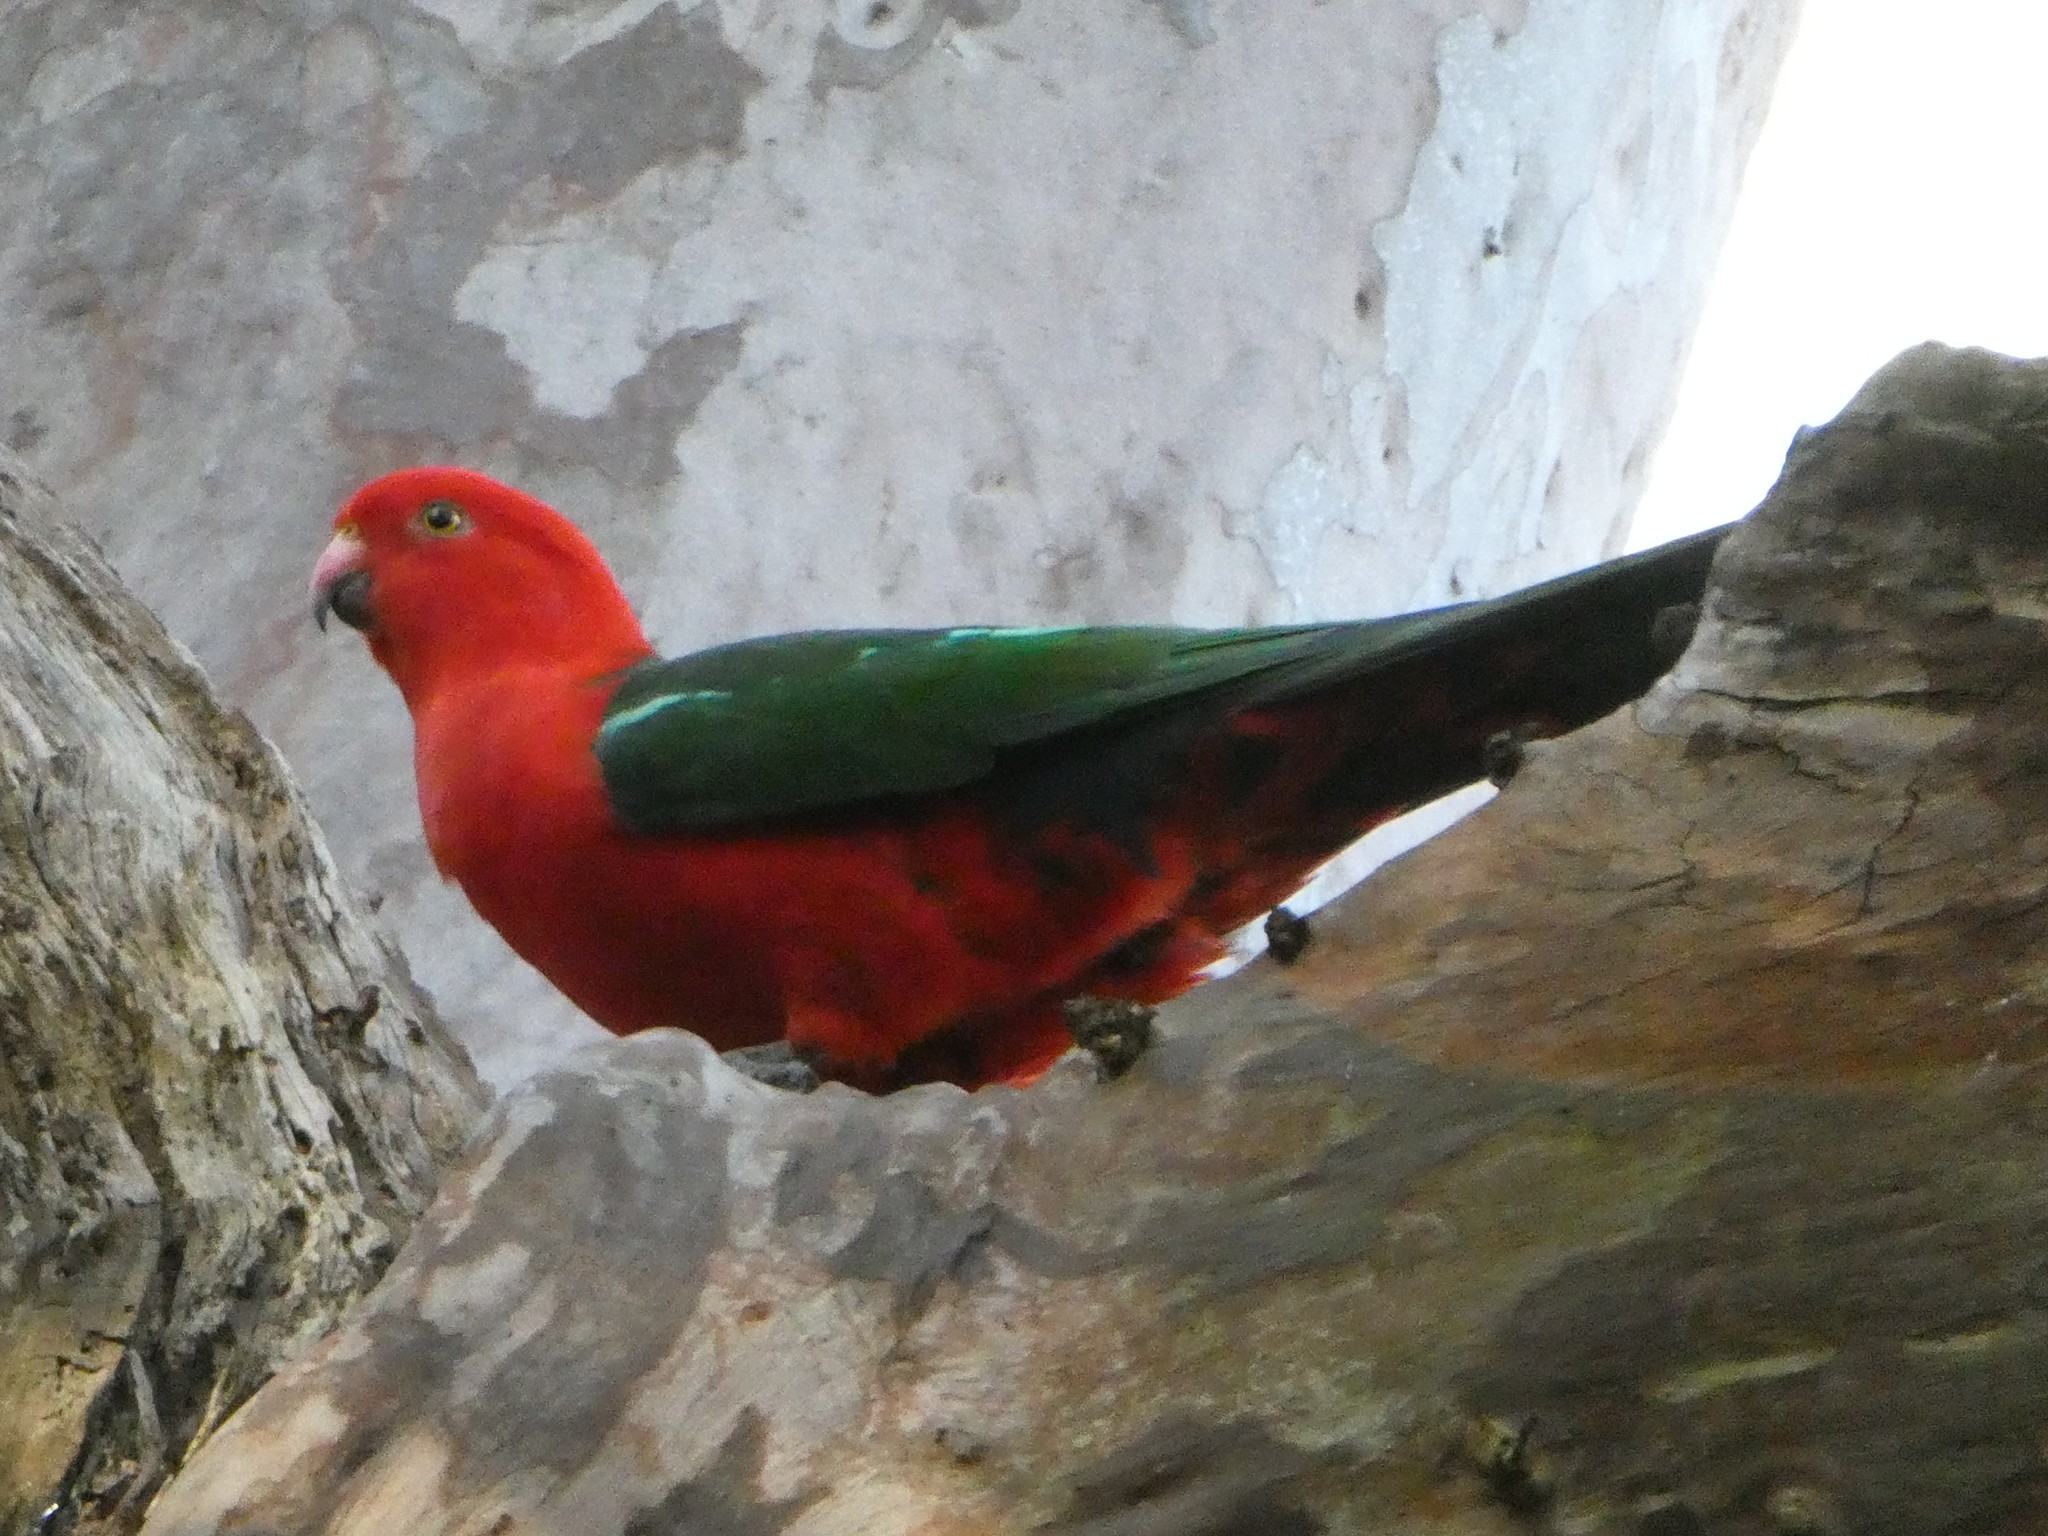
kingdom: Animalia
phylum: Chordata
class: Aves
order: Psittaciformes
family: Psittacidae
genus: Alisterus
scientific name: Alisterus scapularis
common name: Australian king parrot
